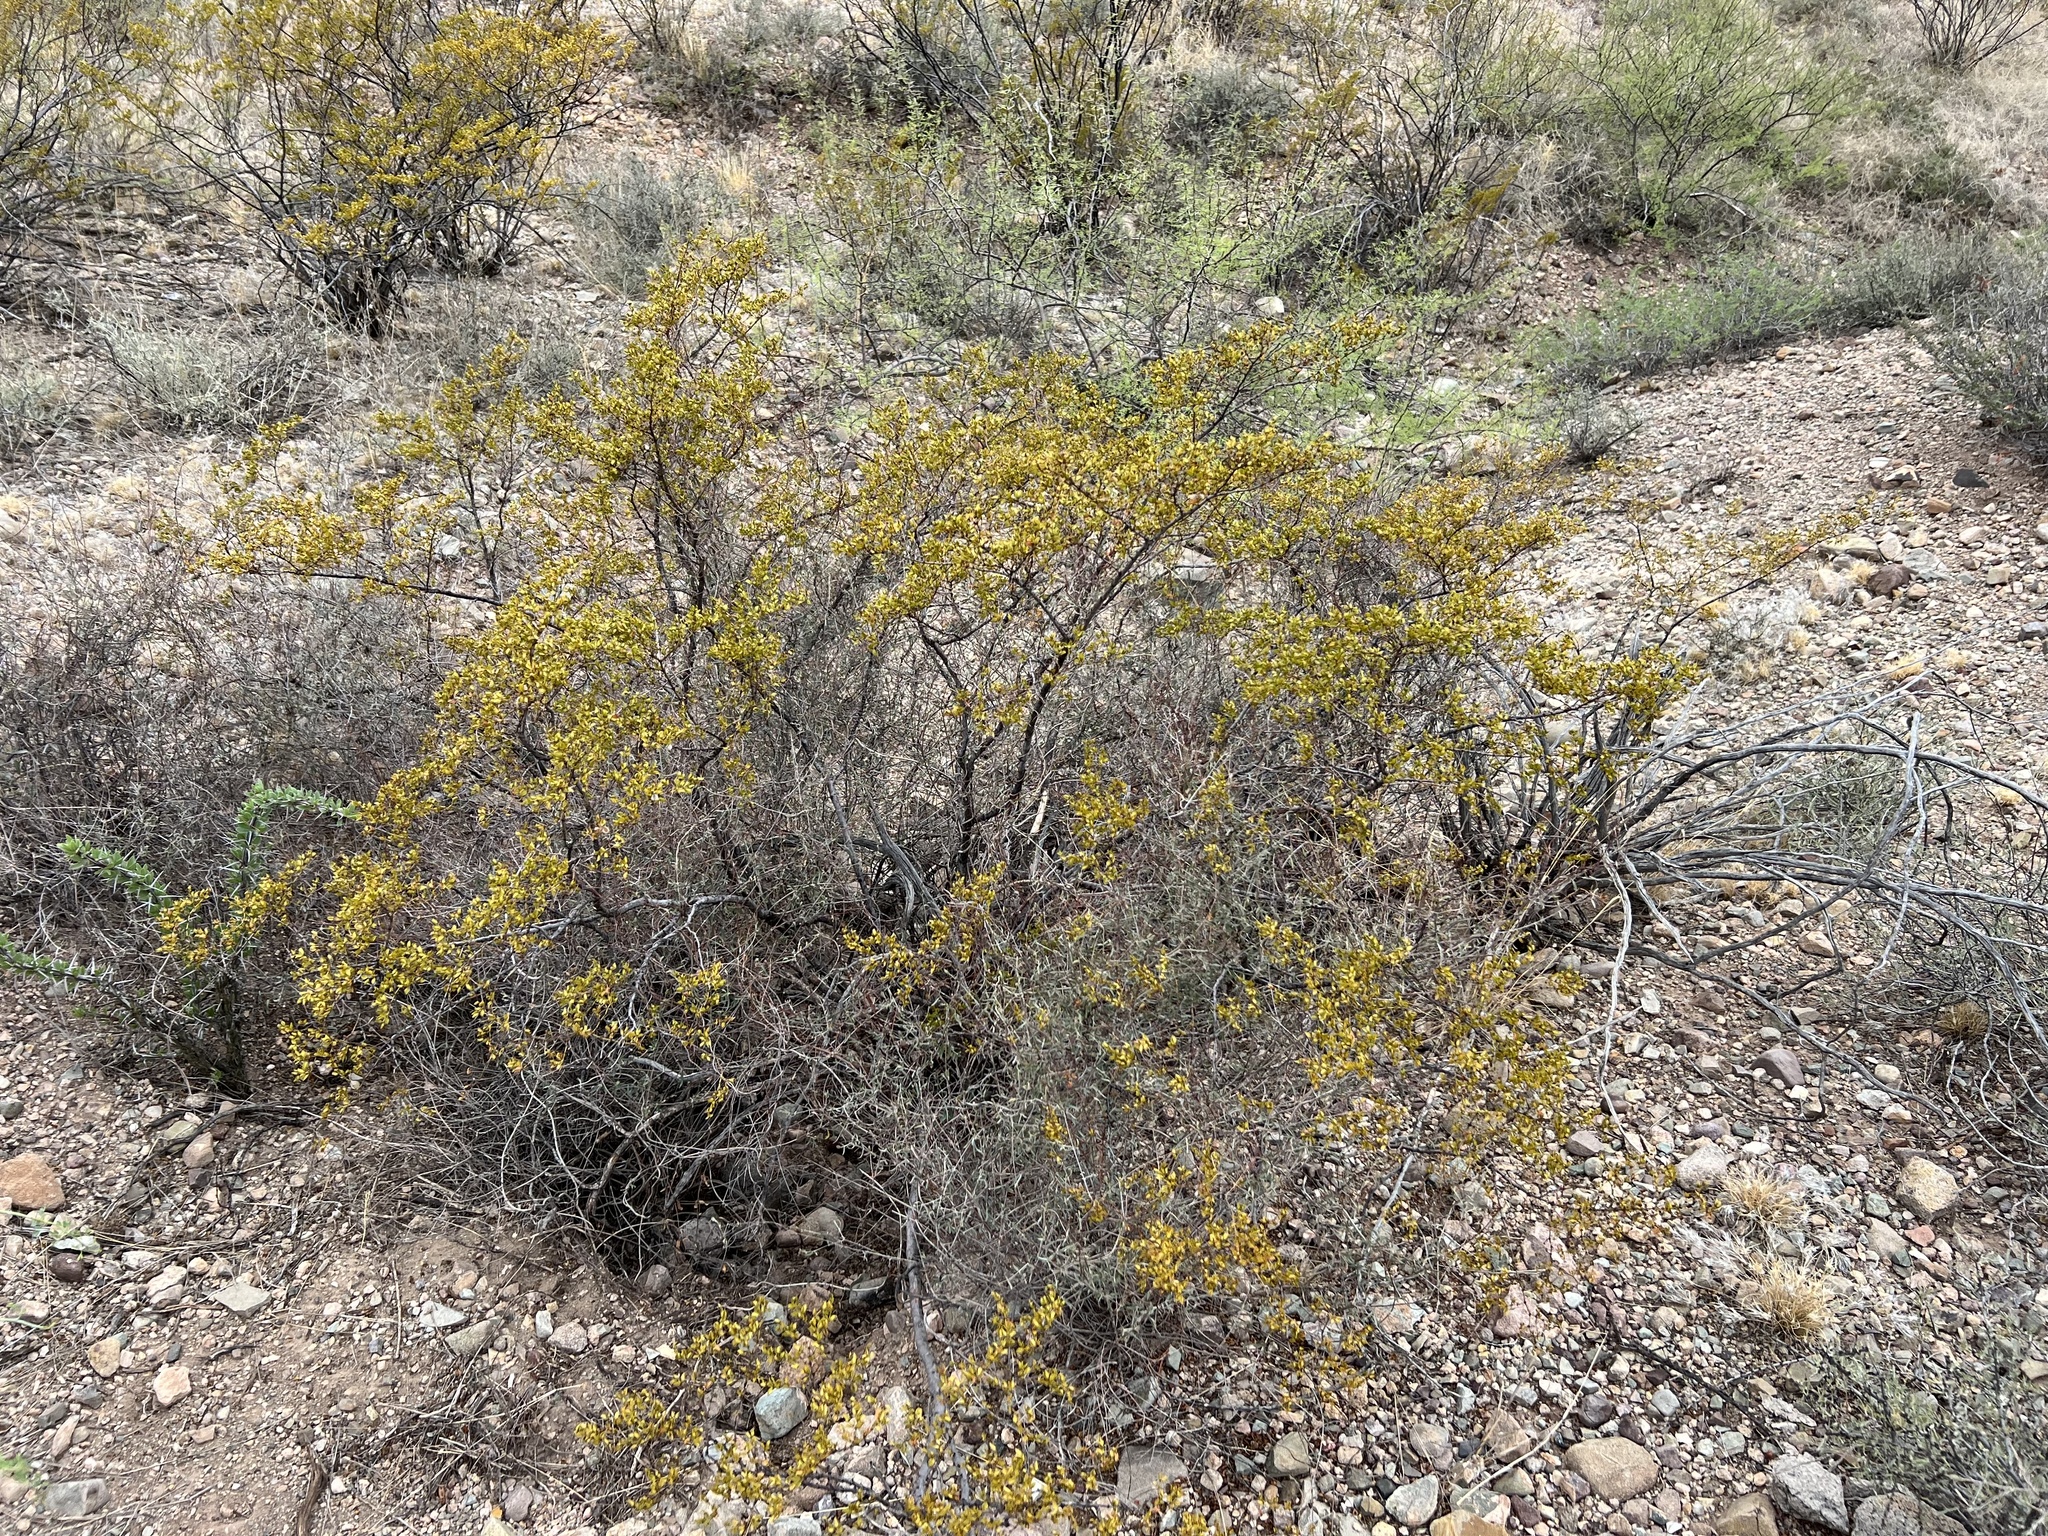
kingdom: Plantae
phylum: Tracheophyta
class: Magnoliopsida
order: Zygophyllales
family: Zygophyllaceae
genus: Larrea
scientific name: Larrea tridentata
